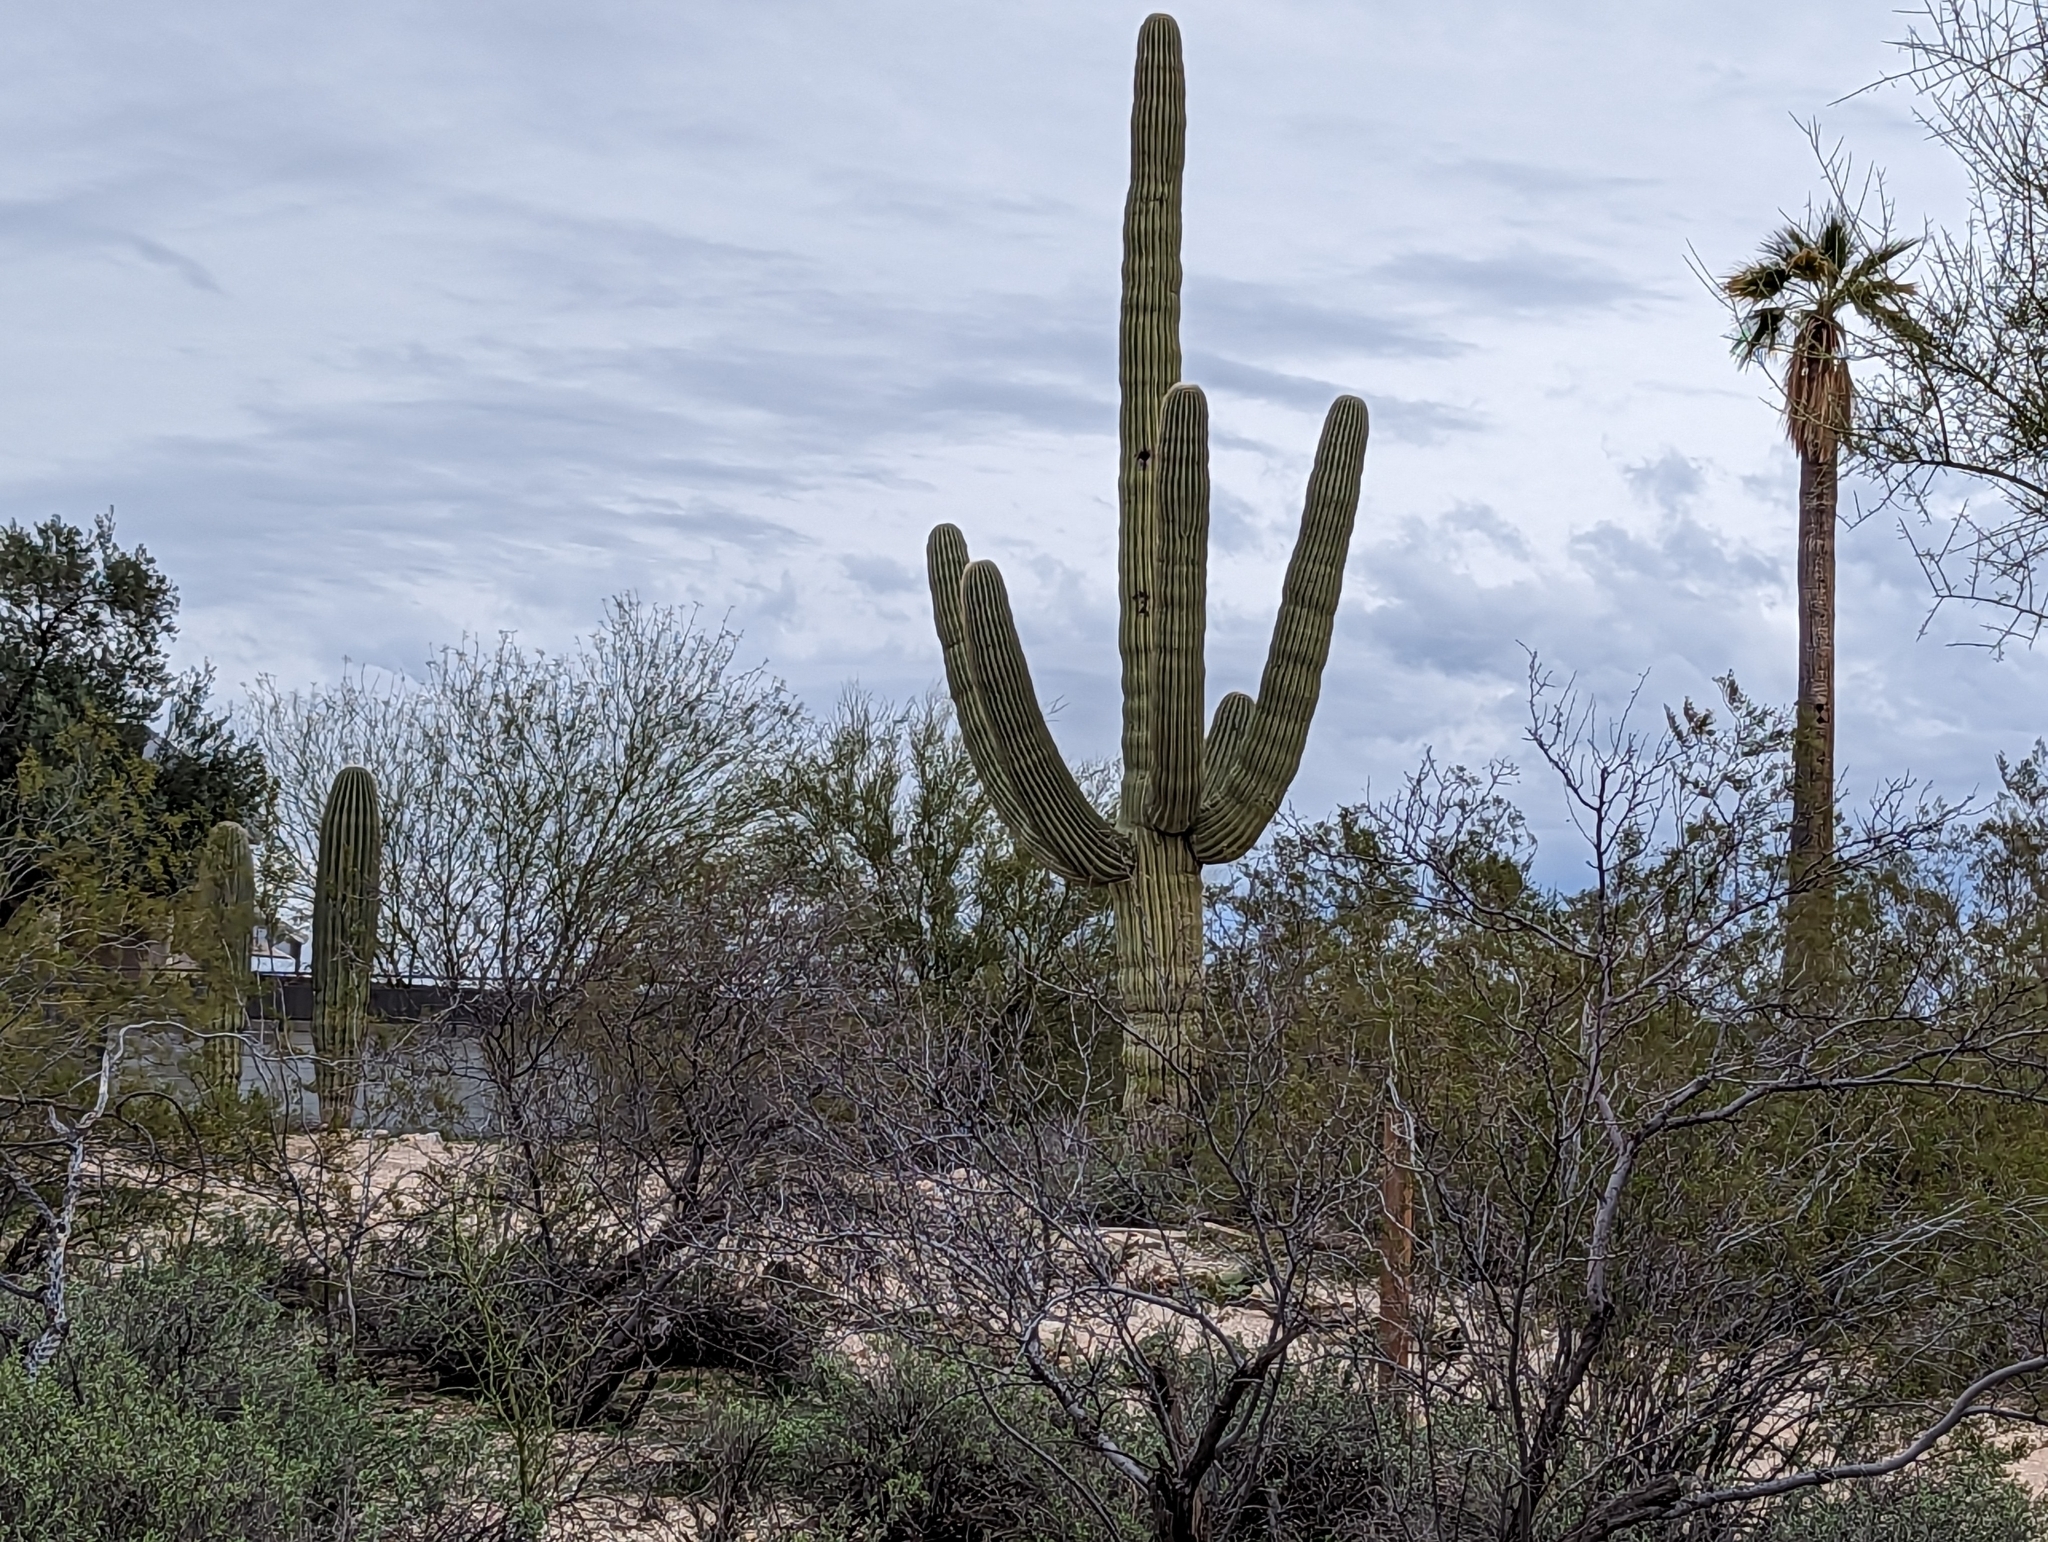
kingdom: Plantae
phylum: Tracheophyta
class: Magnoliopsida
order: Caryophyllales
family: Cactaceae
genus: Carnegiea
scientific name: Carnegiea gigantea
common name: Saguaro
